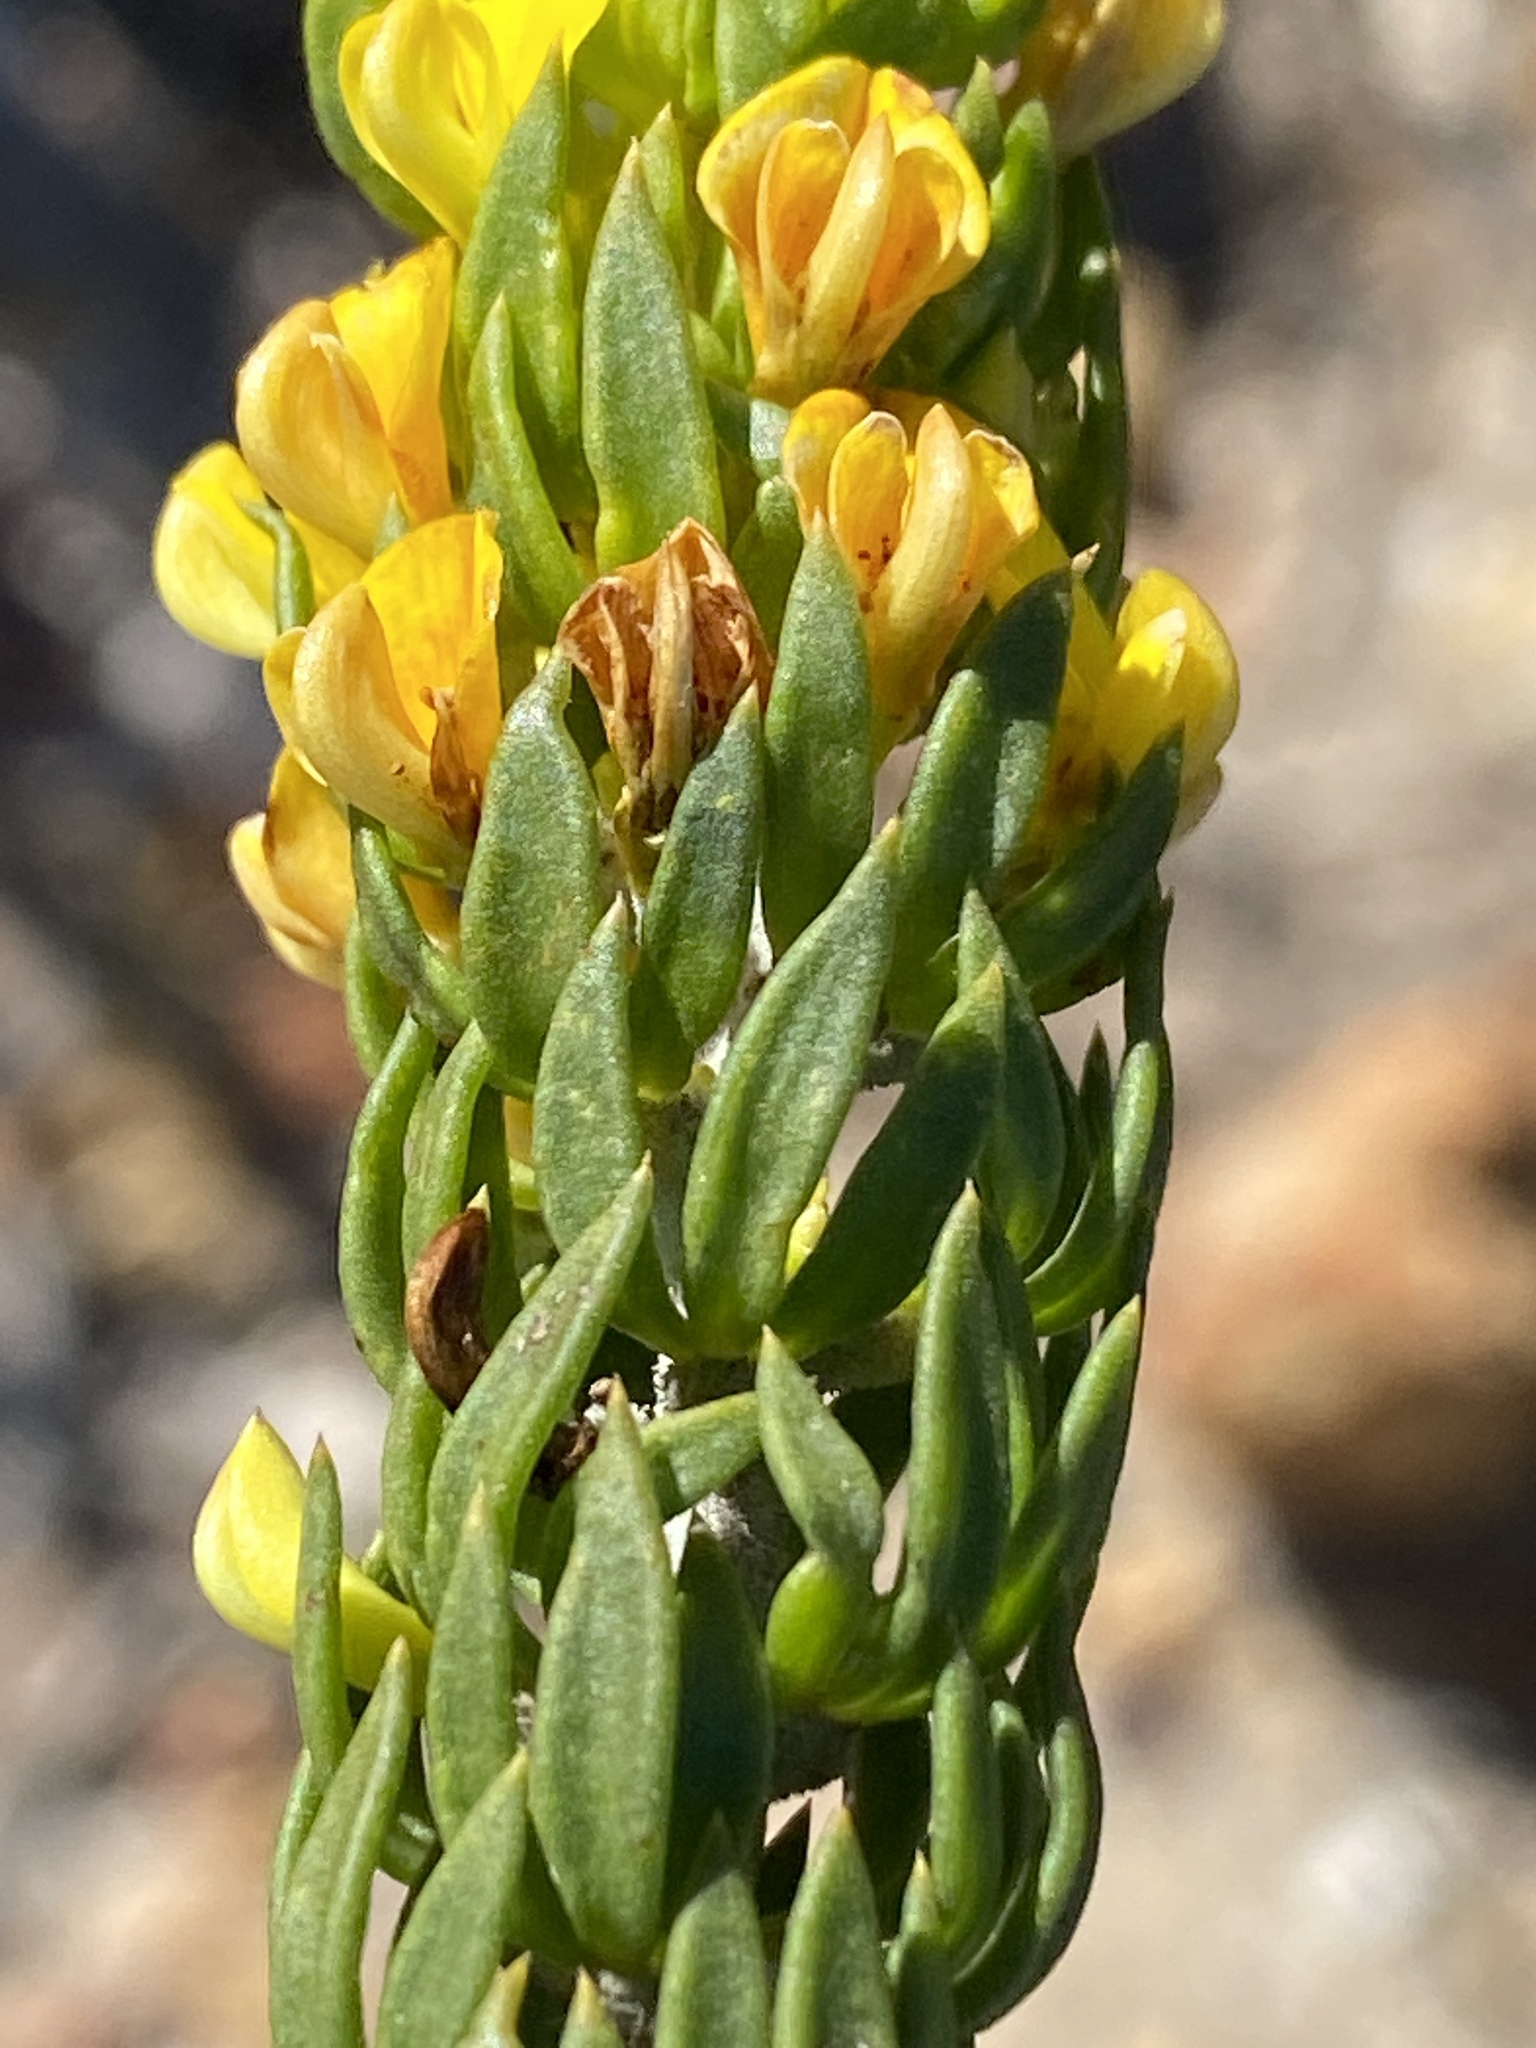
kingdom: Plantae
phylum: Tracheophyta
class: Magnoliopsida
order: Fabales
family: Fabaceae
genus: Aspalathus
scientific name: Aspalathus mundiana
